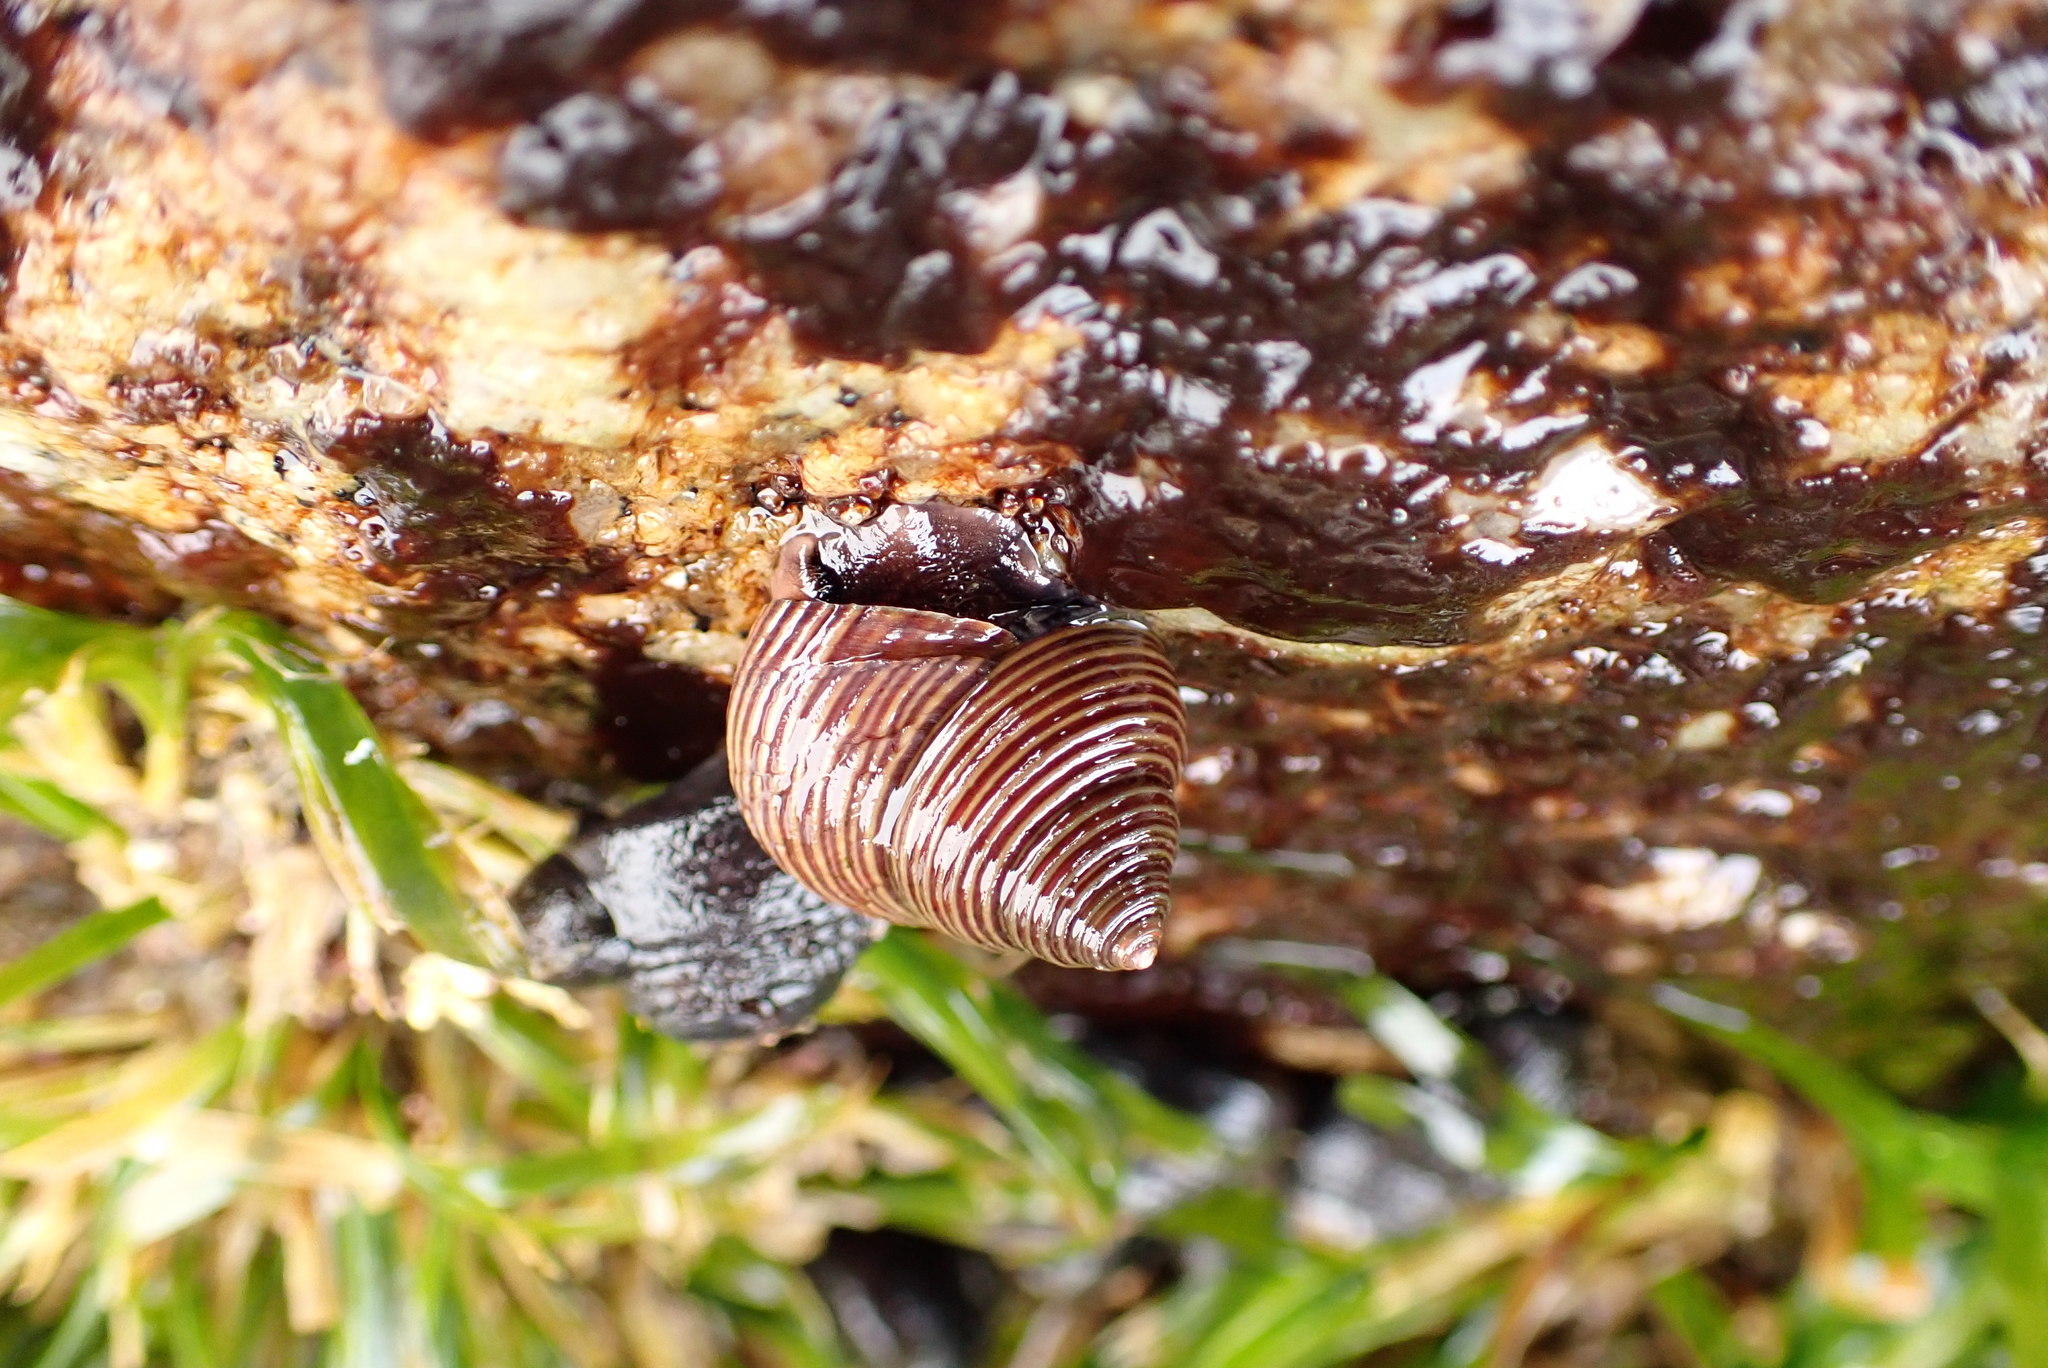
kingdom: Animalia
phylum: Mollusca
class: Gastropoda
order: Trochida
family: Calliostomatidae
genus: Calliostoma
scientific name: Calliostoma ligatum
